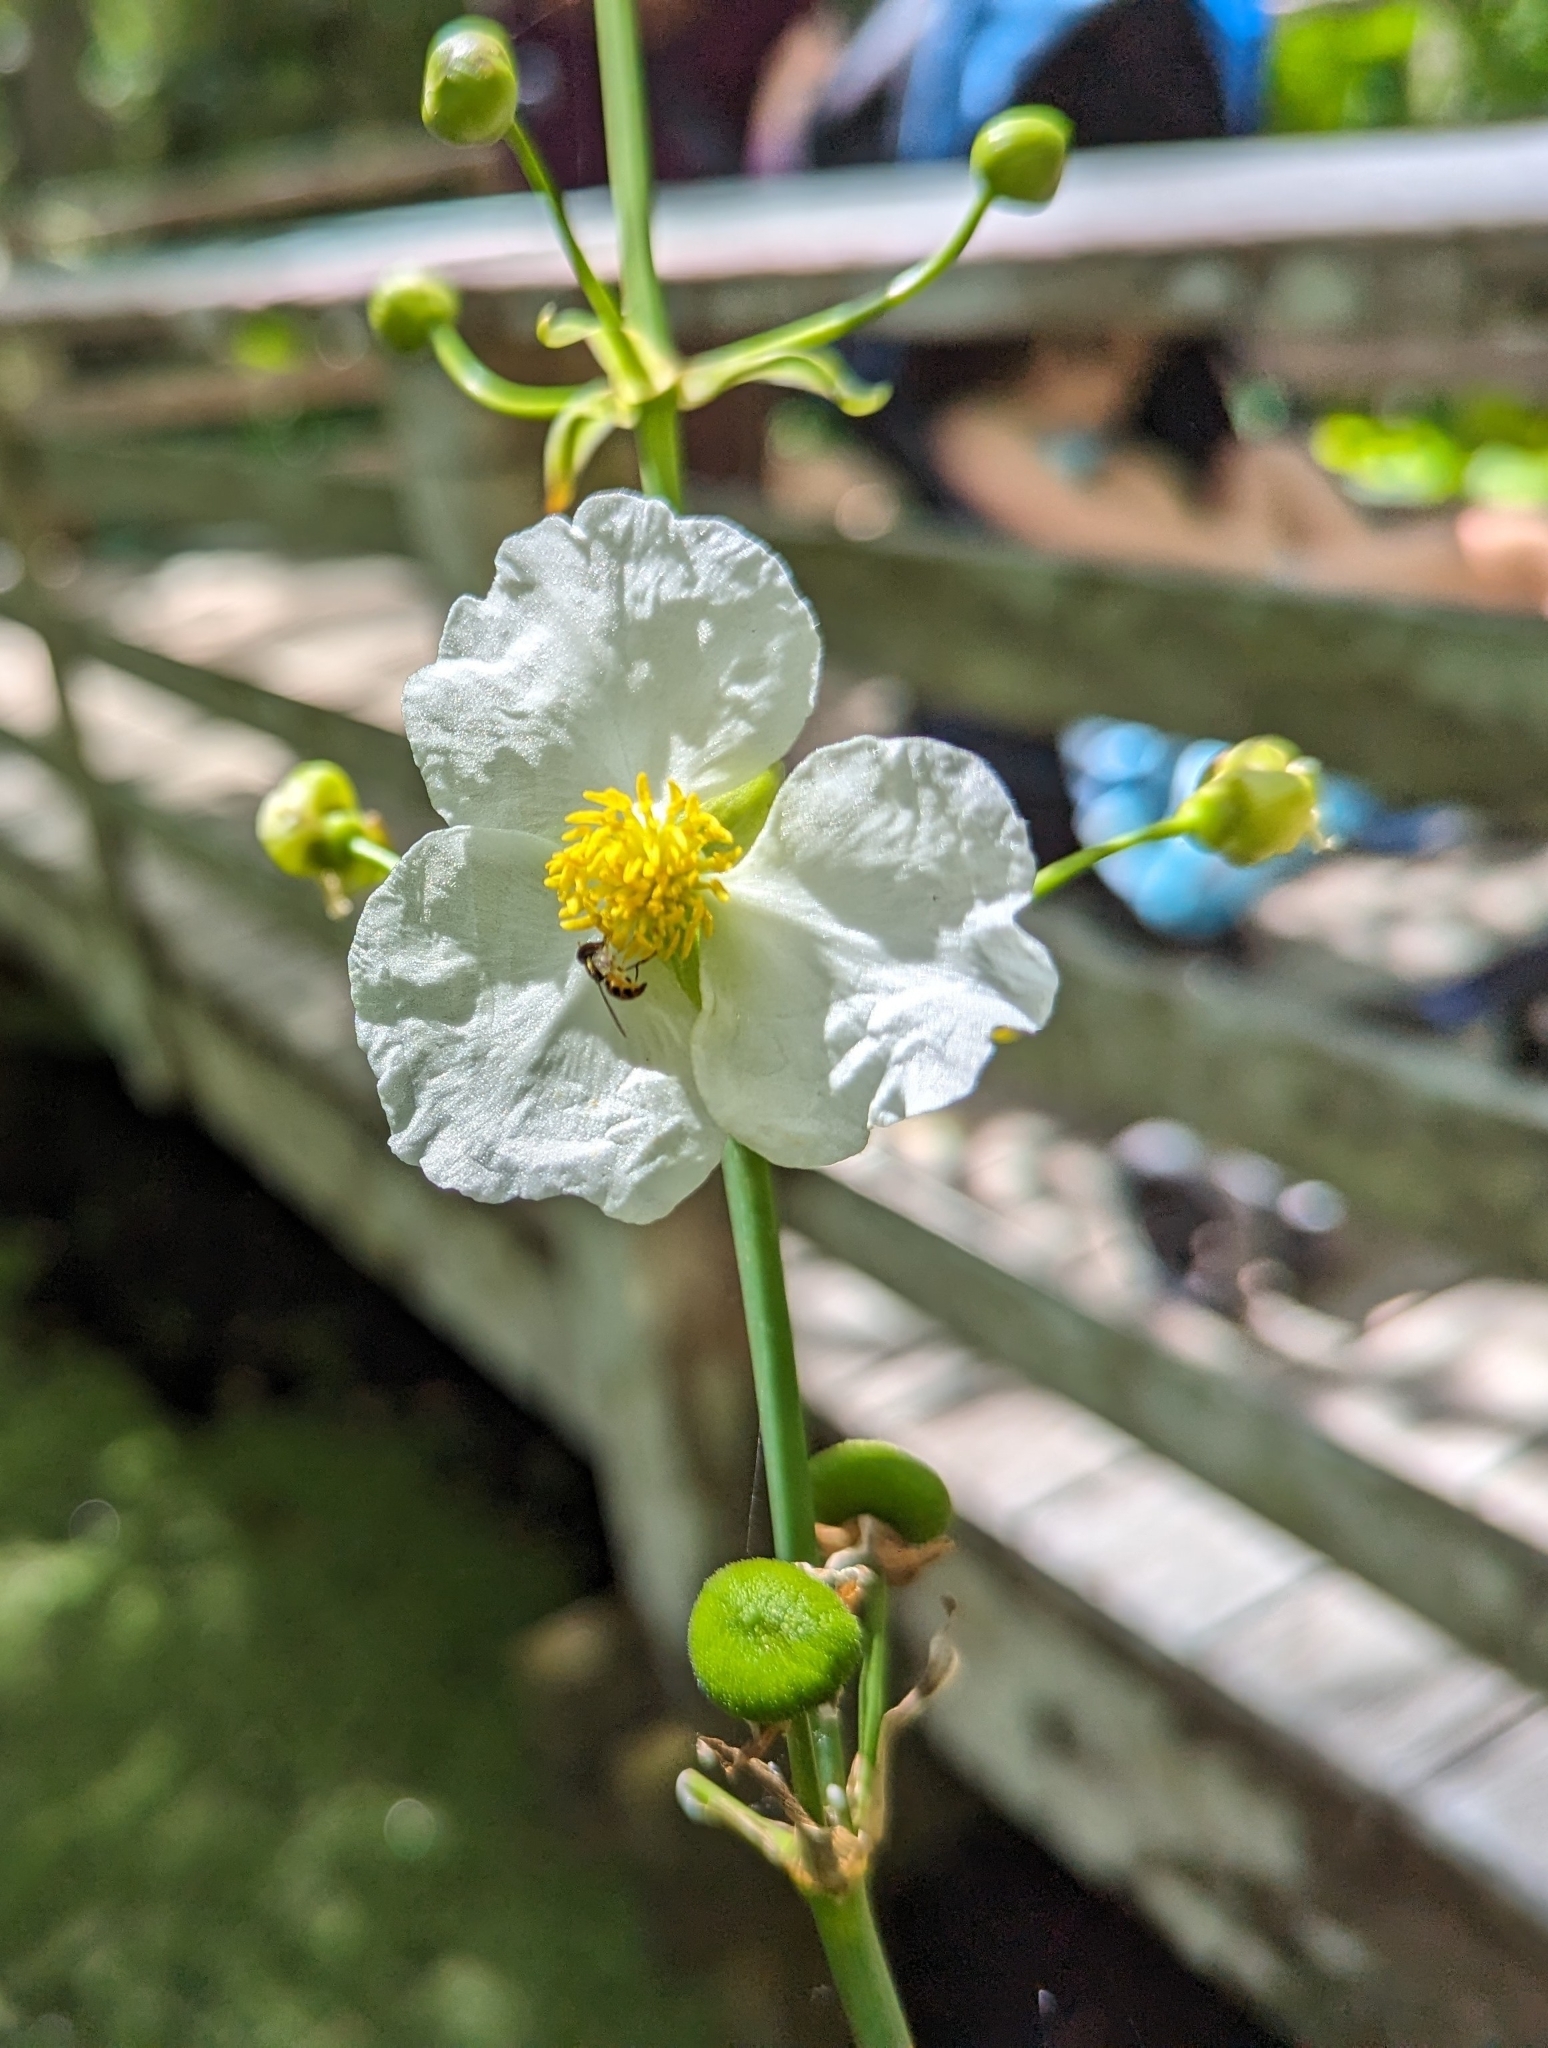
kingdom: Plantae
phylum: Tracheophyta
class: Liliopsida
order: Alismatales
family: Alismataceae
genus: Sagittaria
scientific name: Sagittaria lancifolia
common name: Lance-leaf arrowhead
